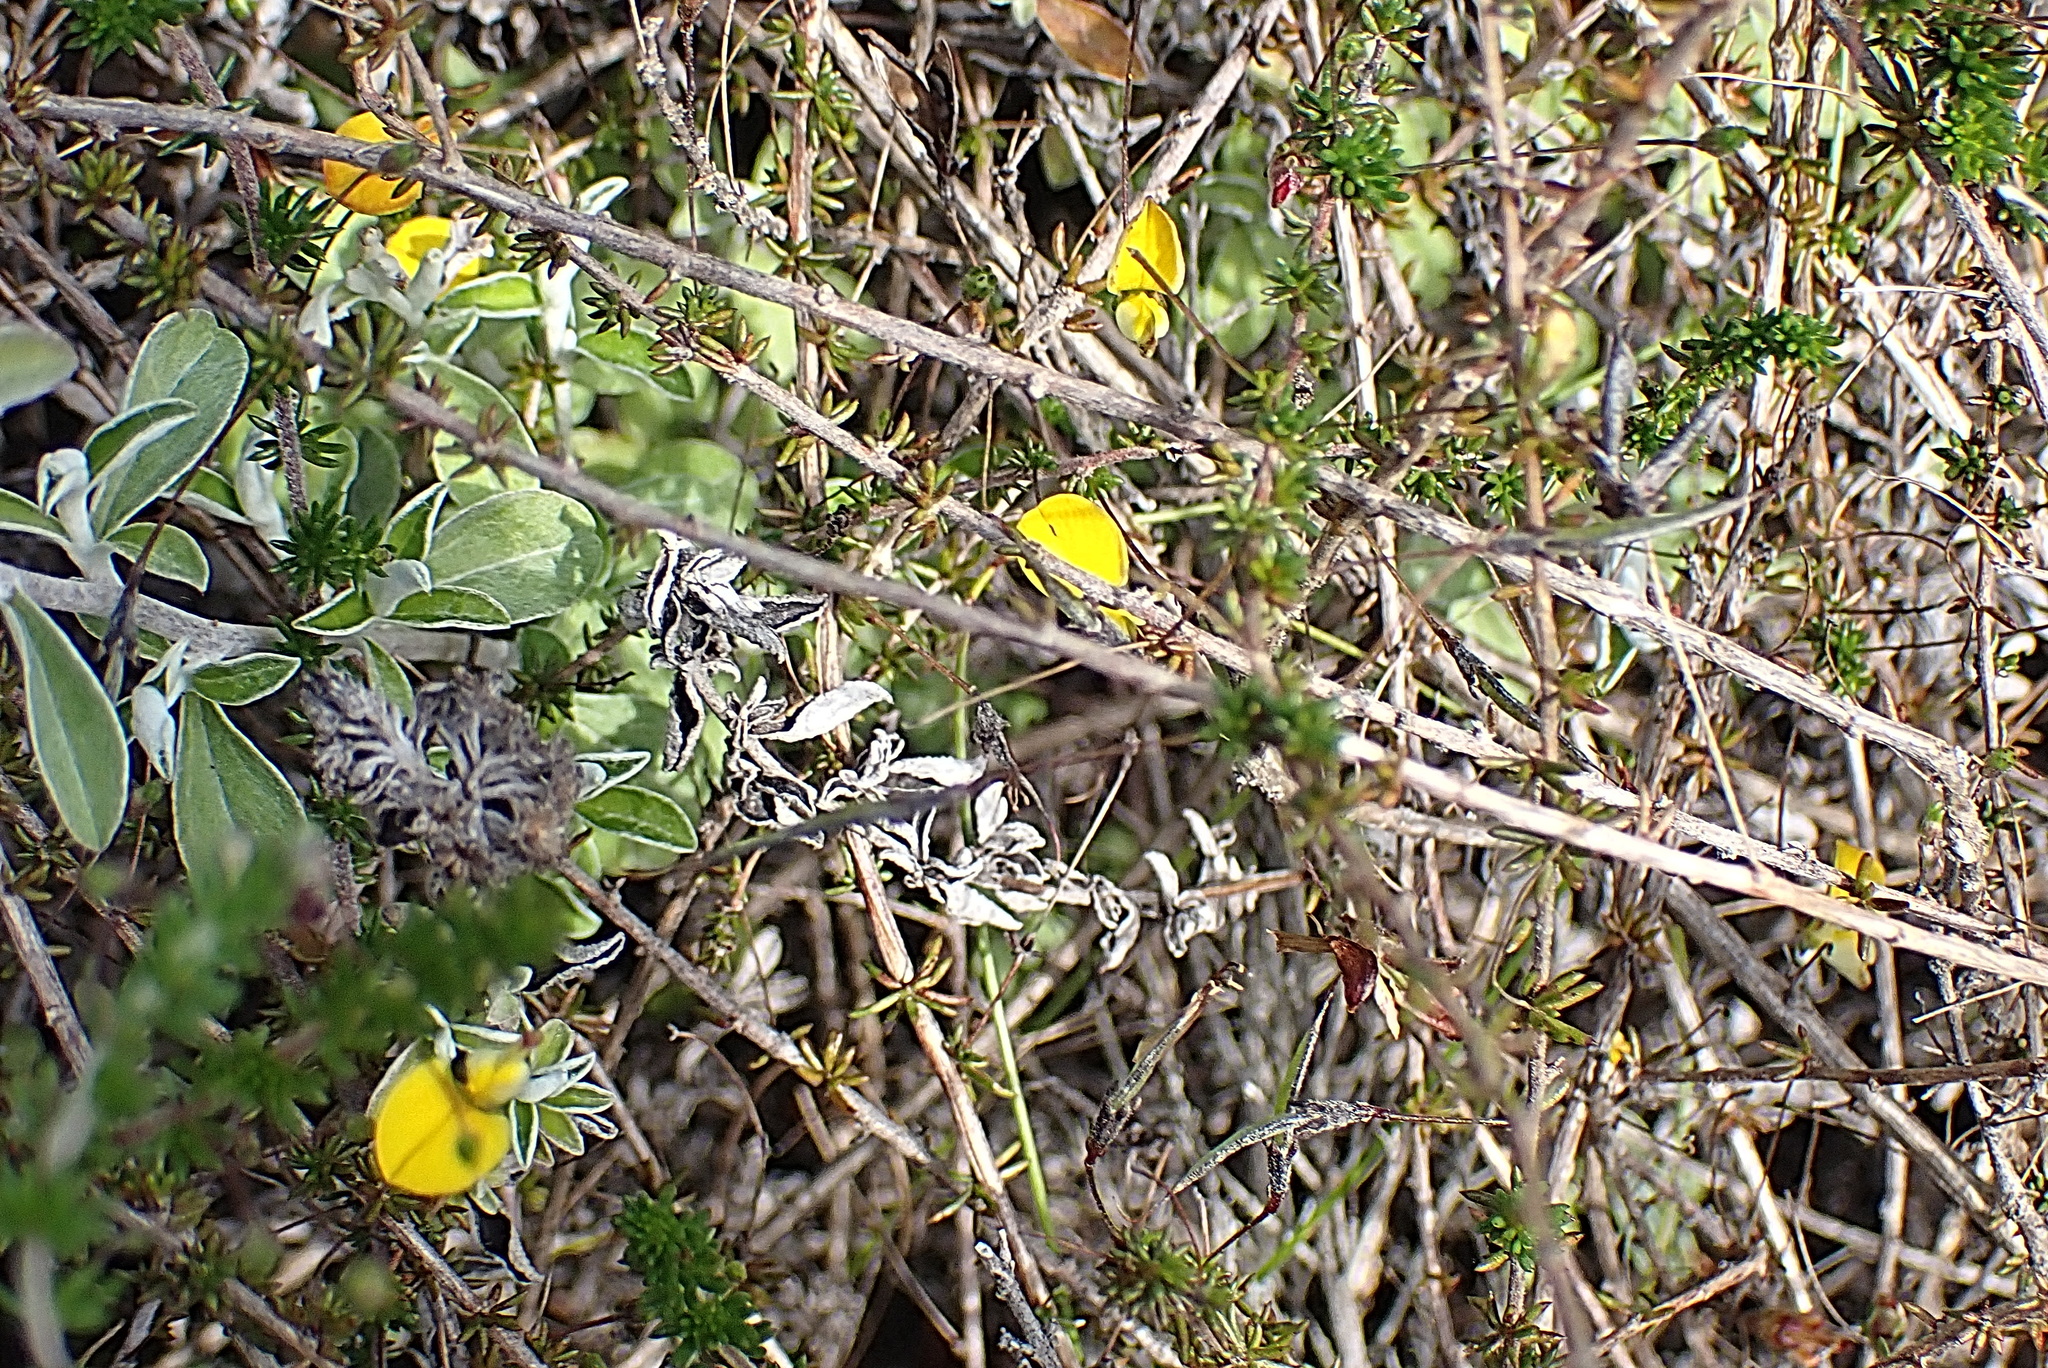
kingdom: Plantae
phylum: Tracheophyta
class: Magnoliopsida
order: Fabales
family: Fabaceae
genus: Aspalathus
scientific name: Aspalathus tenuissima
